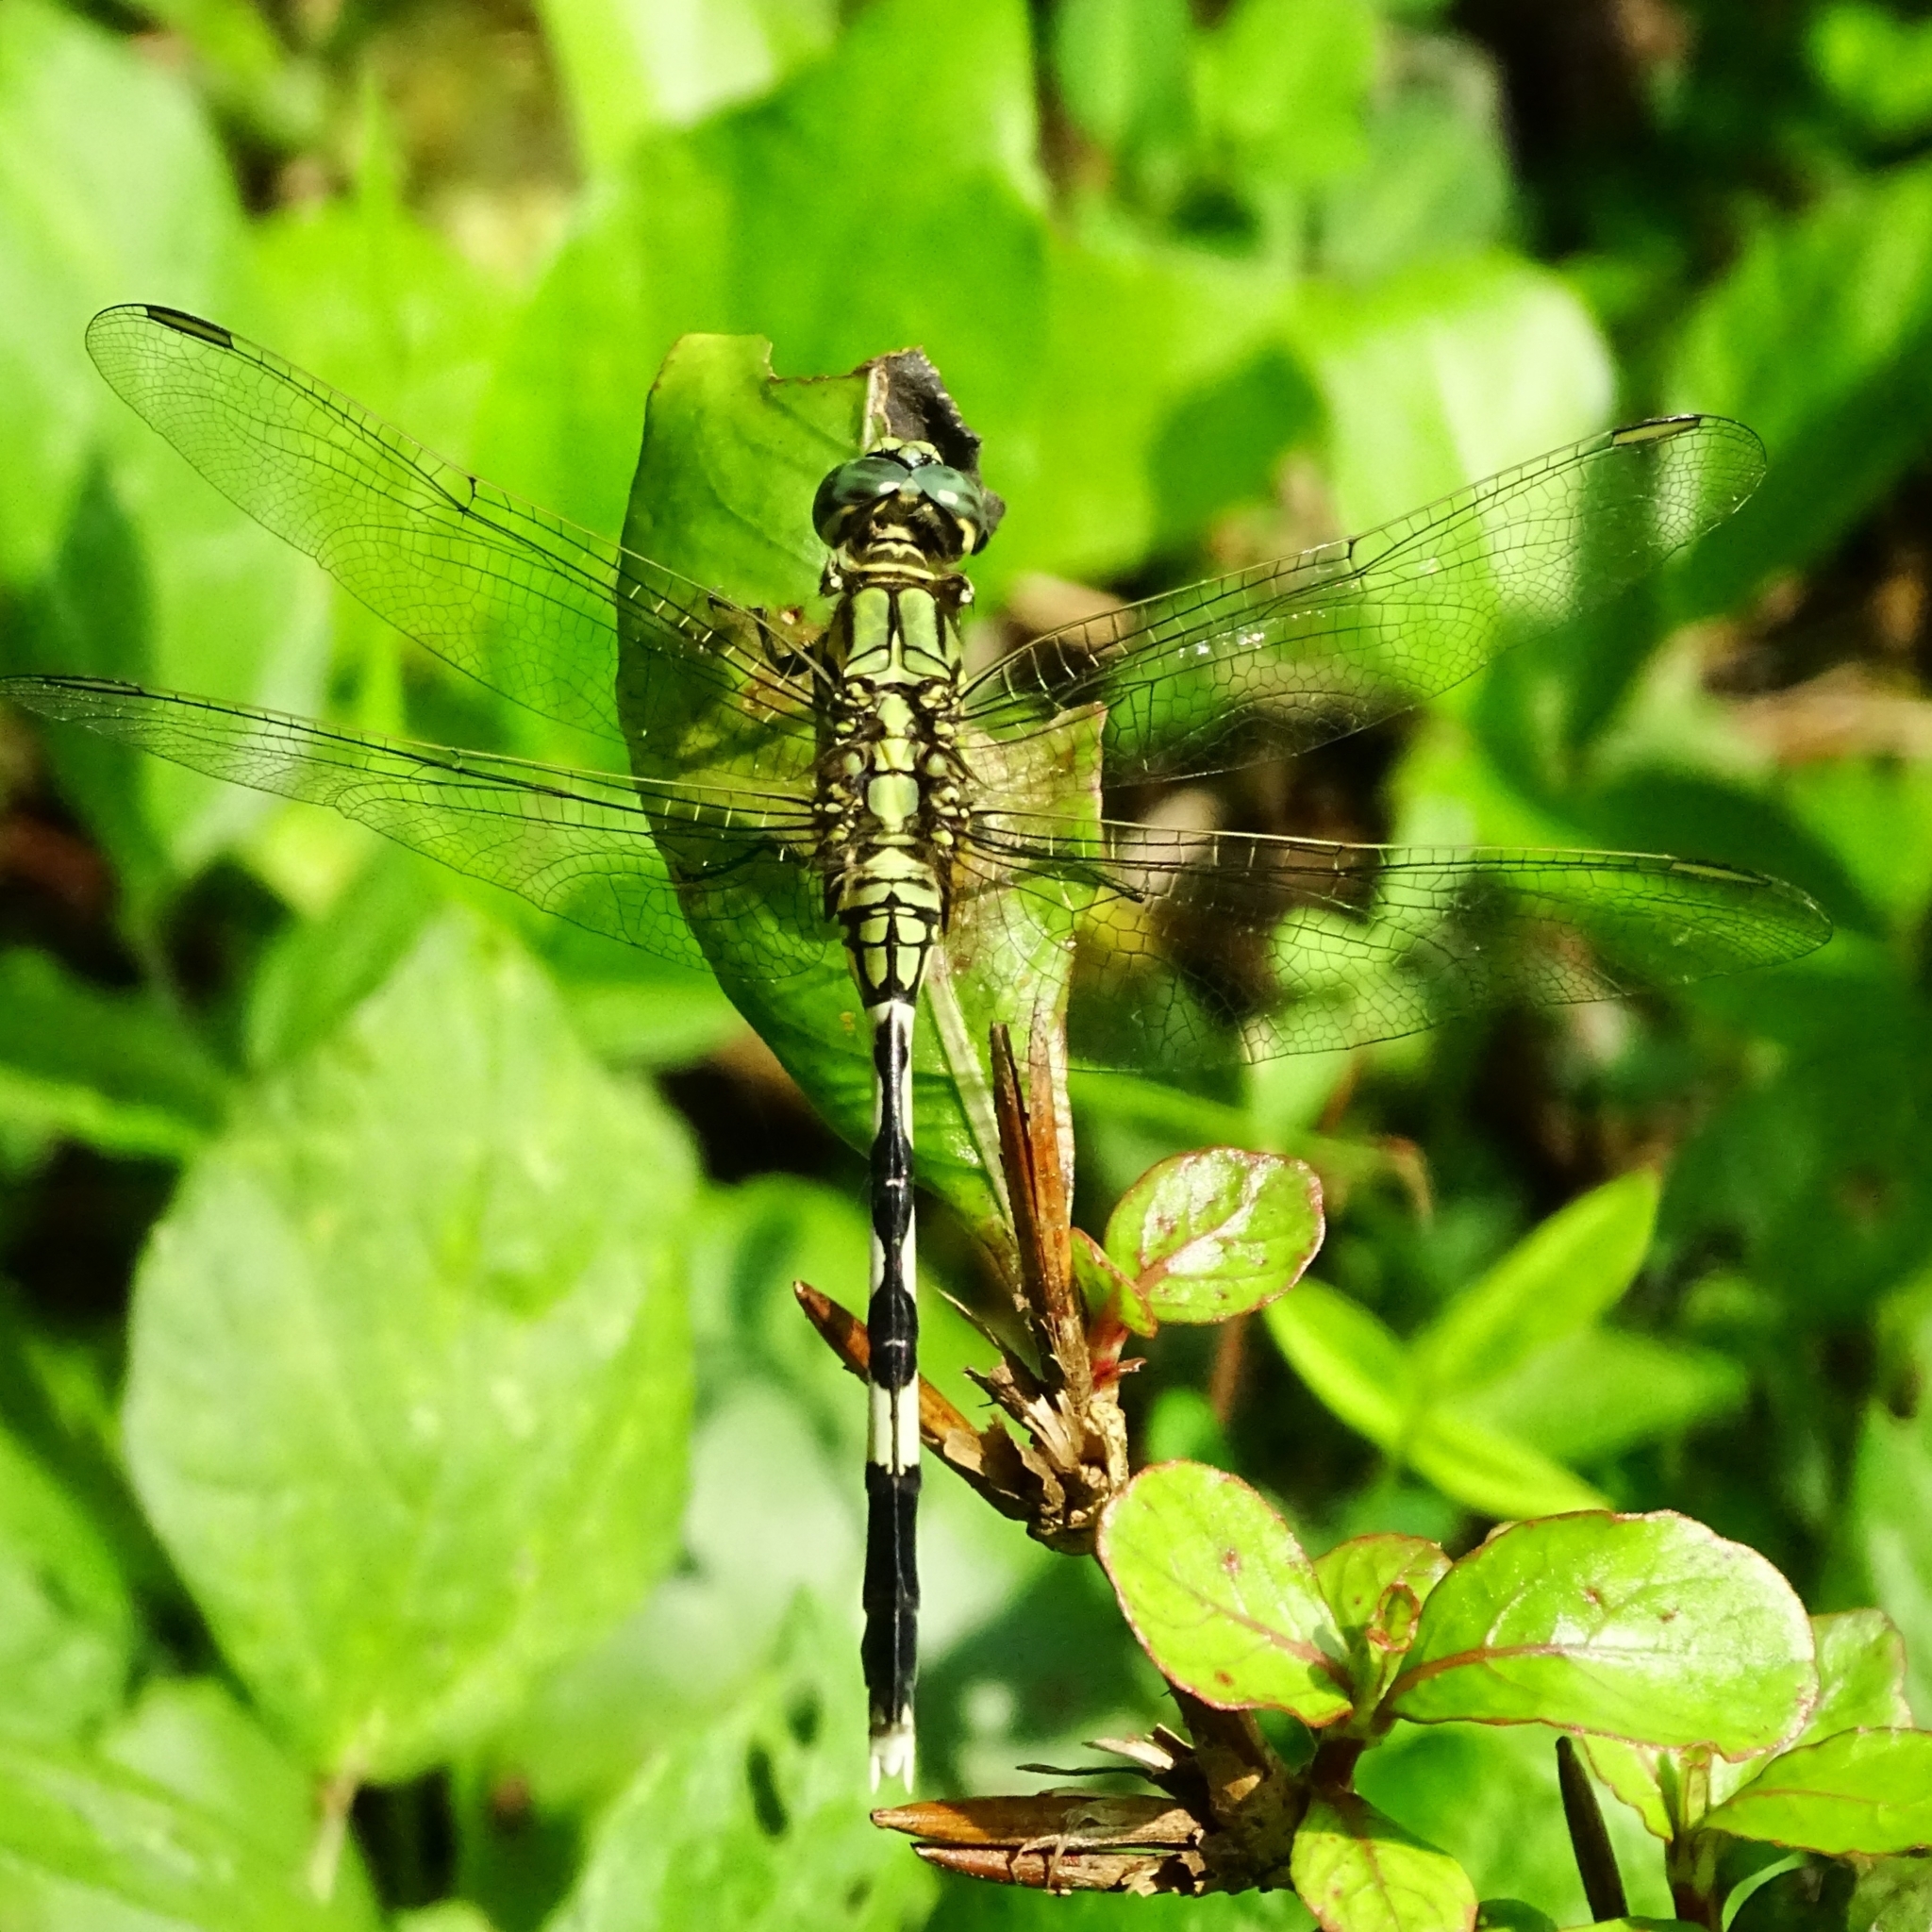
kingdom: Animalia
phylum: Arthropoda
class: Insecta
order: Odonata
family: Libellulidae
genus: Orthetrum
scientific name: Orthetrum sabina
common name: Slender skimmer
